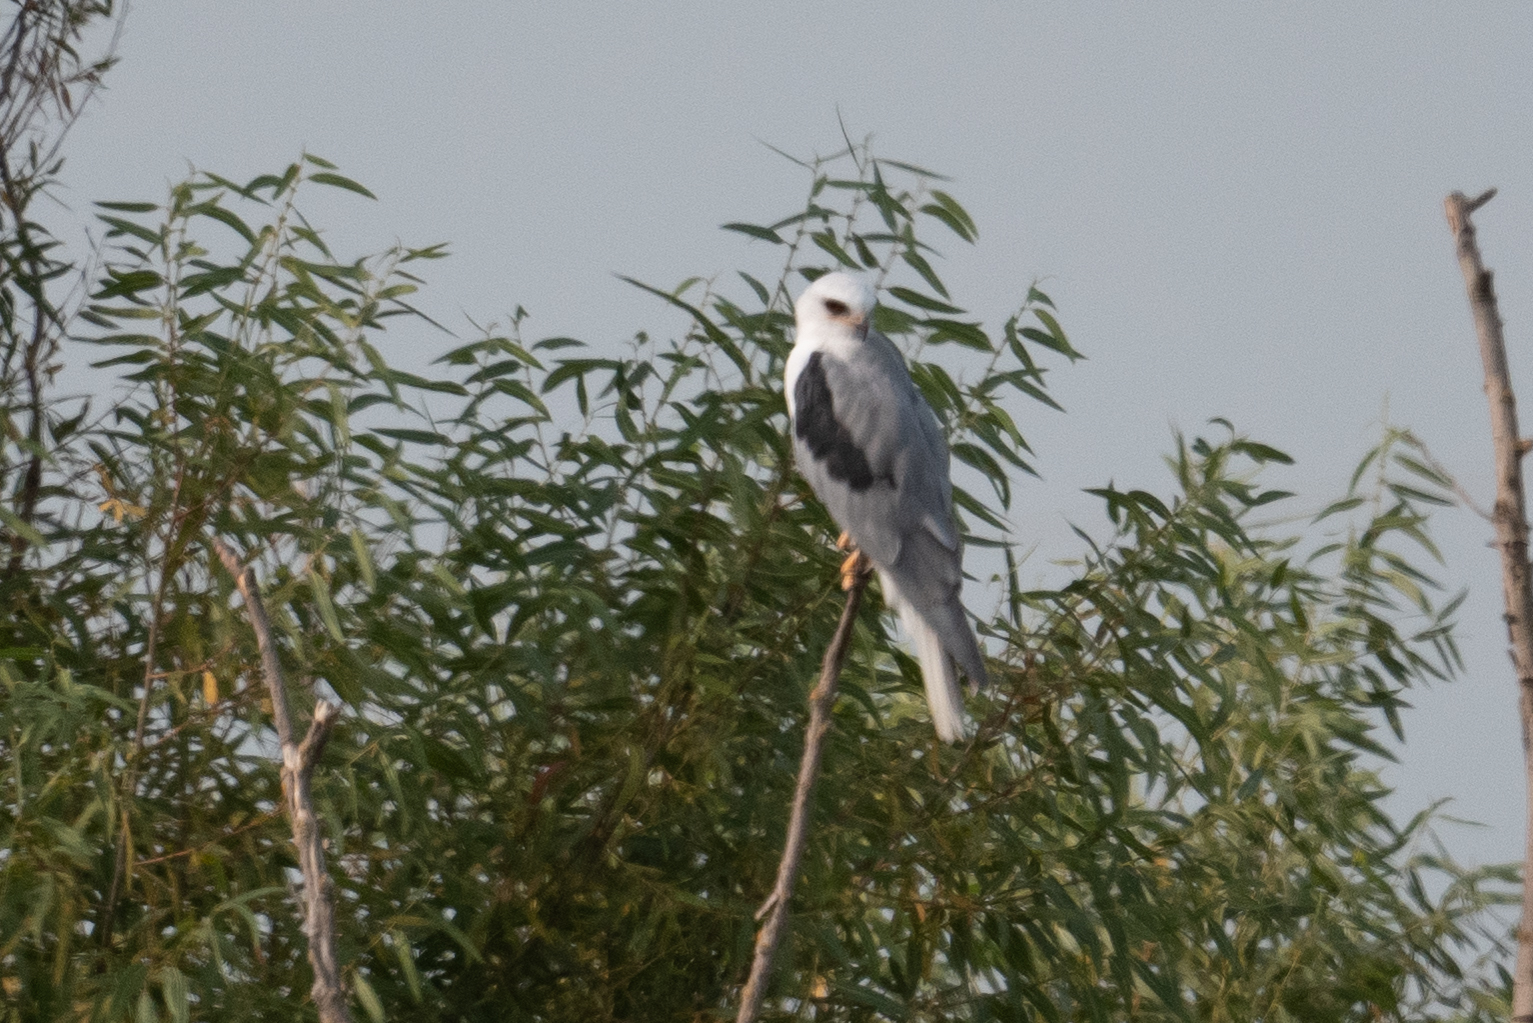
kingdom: Animalia
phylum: Chordata
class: Aves
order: Accipitriformes
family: Accipitridae
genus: Elanus
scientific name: Elanus leucurus
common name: White-tailed kite
